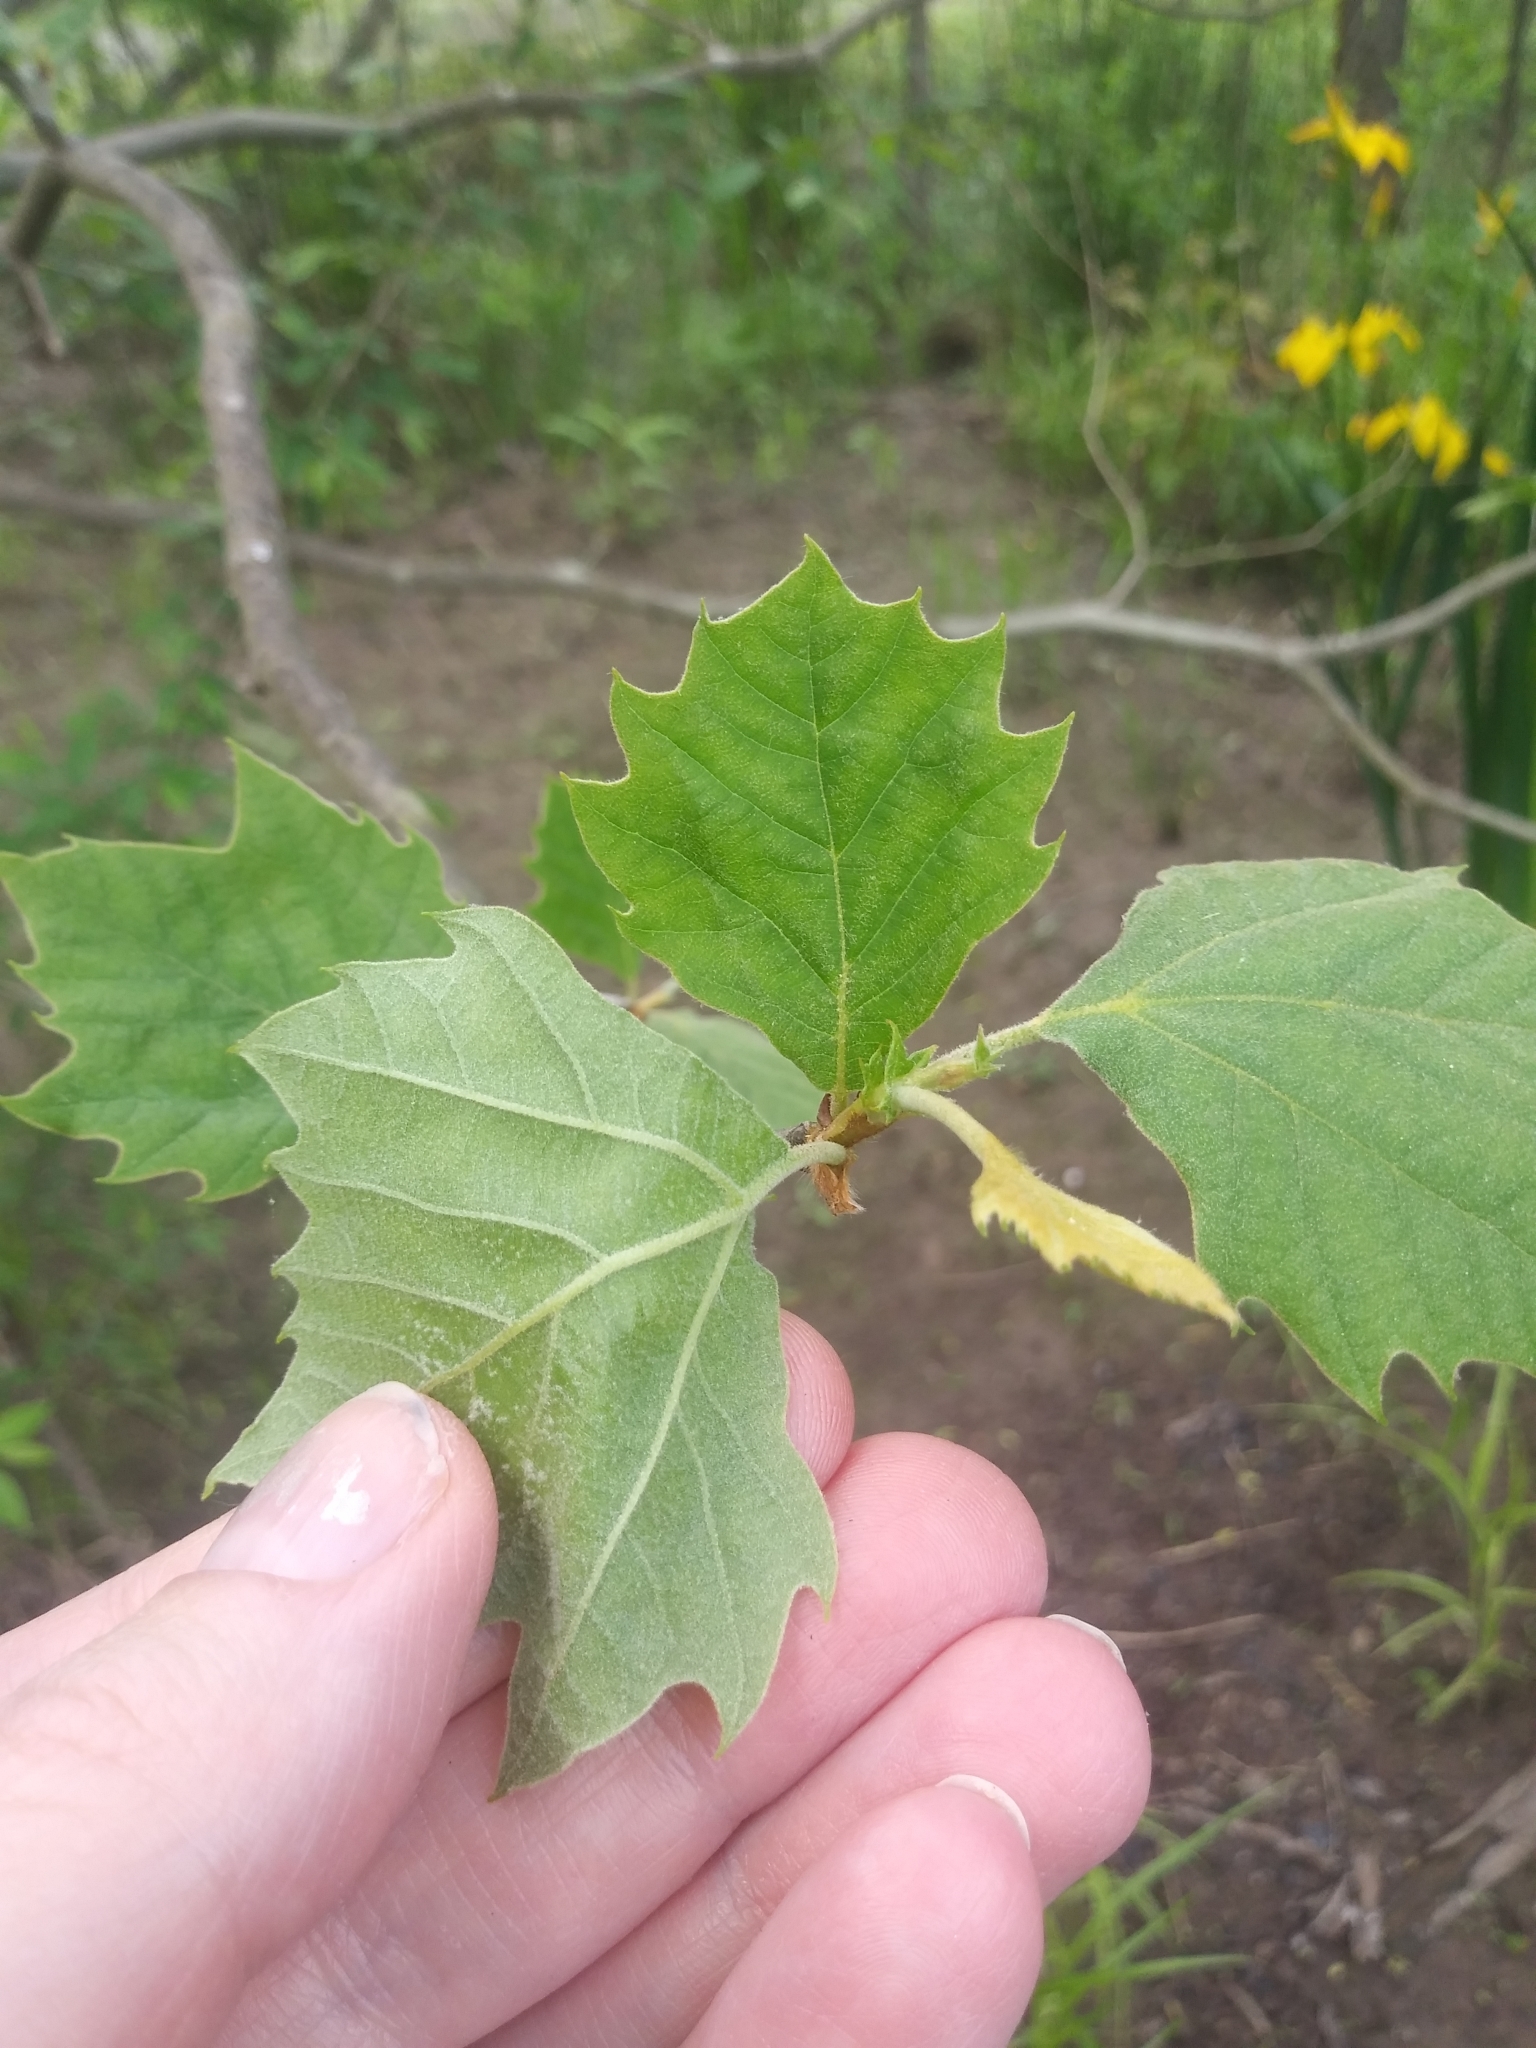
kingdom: Plantae
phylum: Tracheophyta
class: Magnoliopsida
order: Proteales
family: Platanaceae
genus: Platanus
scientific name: Platanus occidentalis
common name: American sycamore
